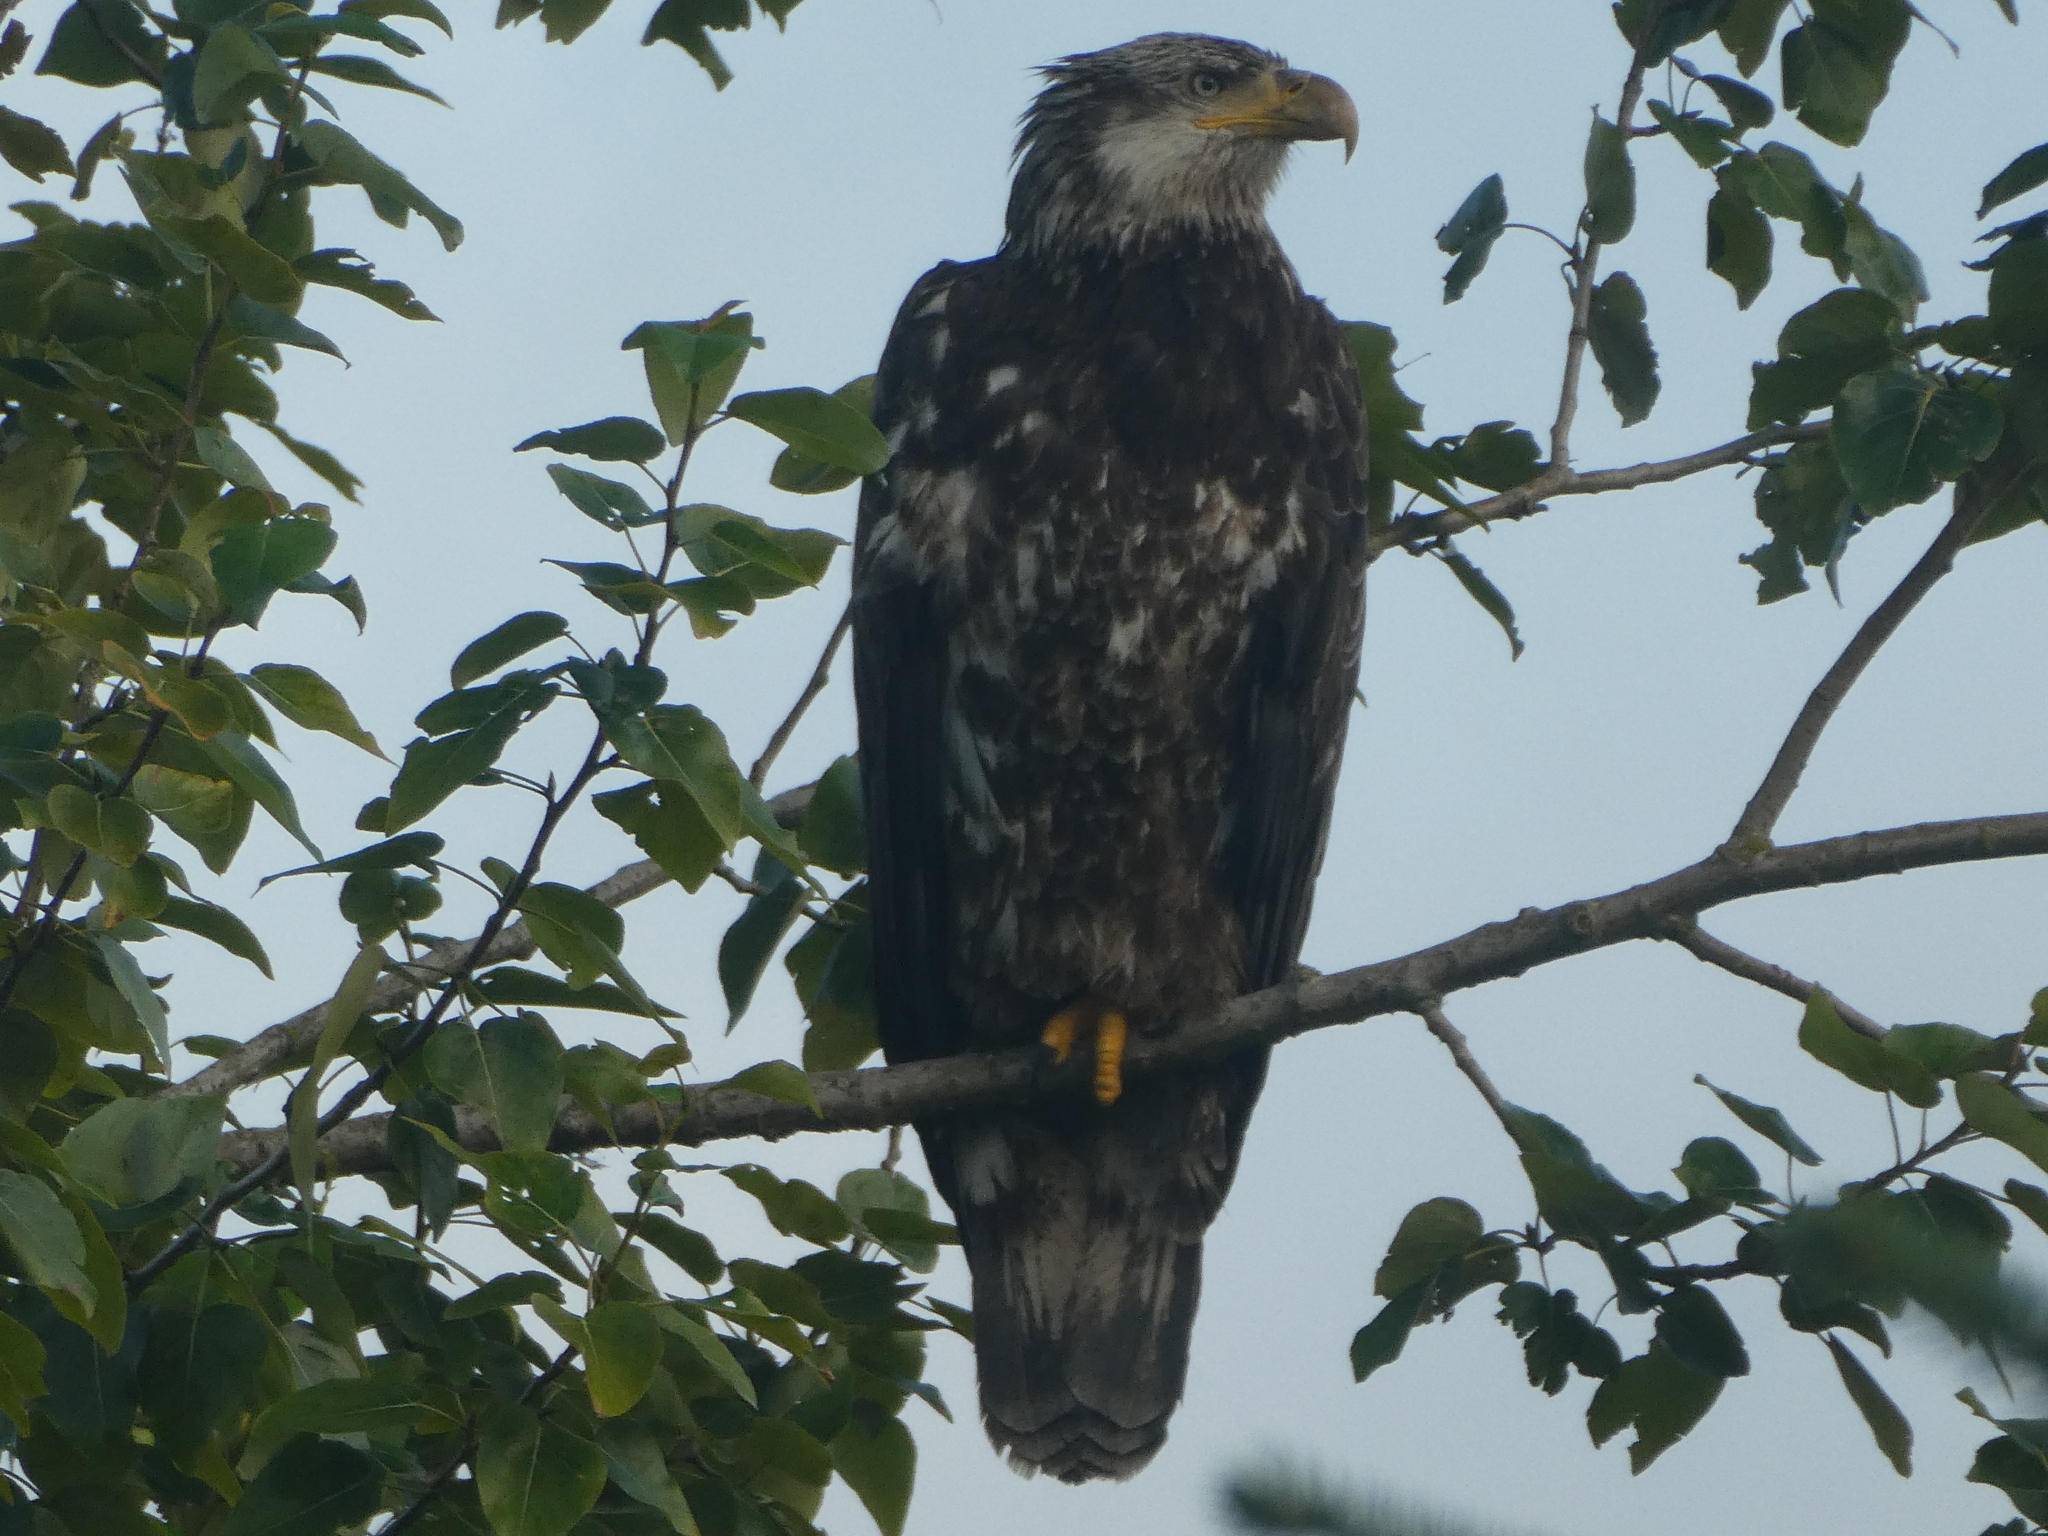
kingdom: Animalia
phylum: Chordata
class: Aves
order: Accipitriformes
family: Accipitridae
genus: Haliaeetus
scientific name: Haliaeetus leucocephalus
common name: Bald eagle
